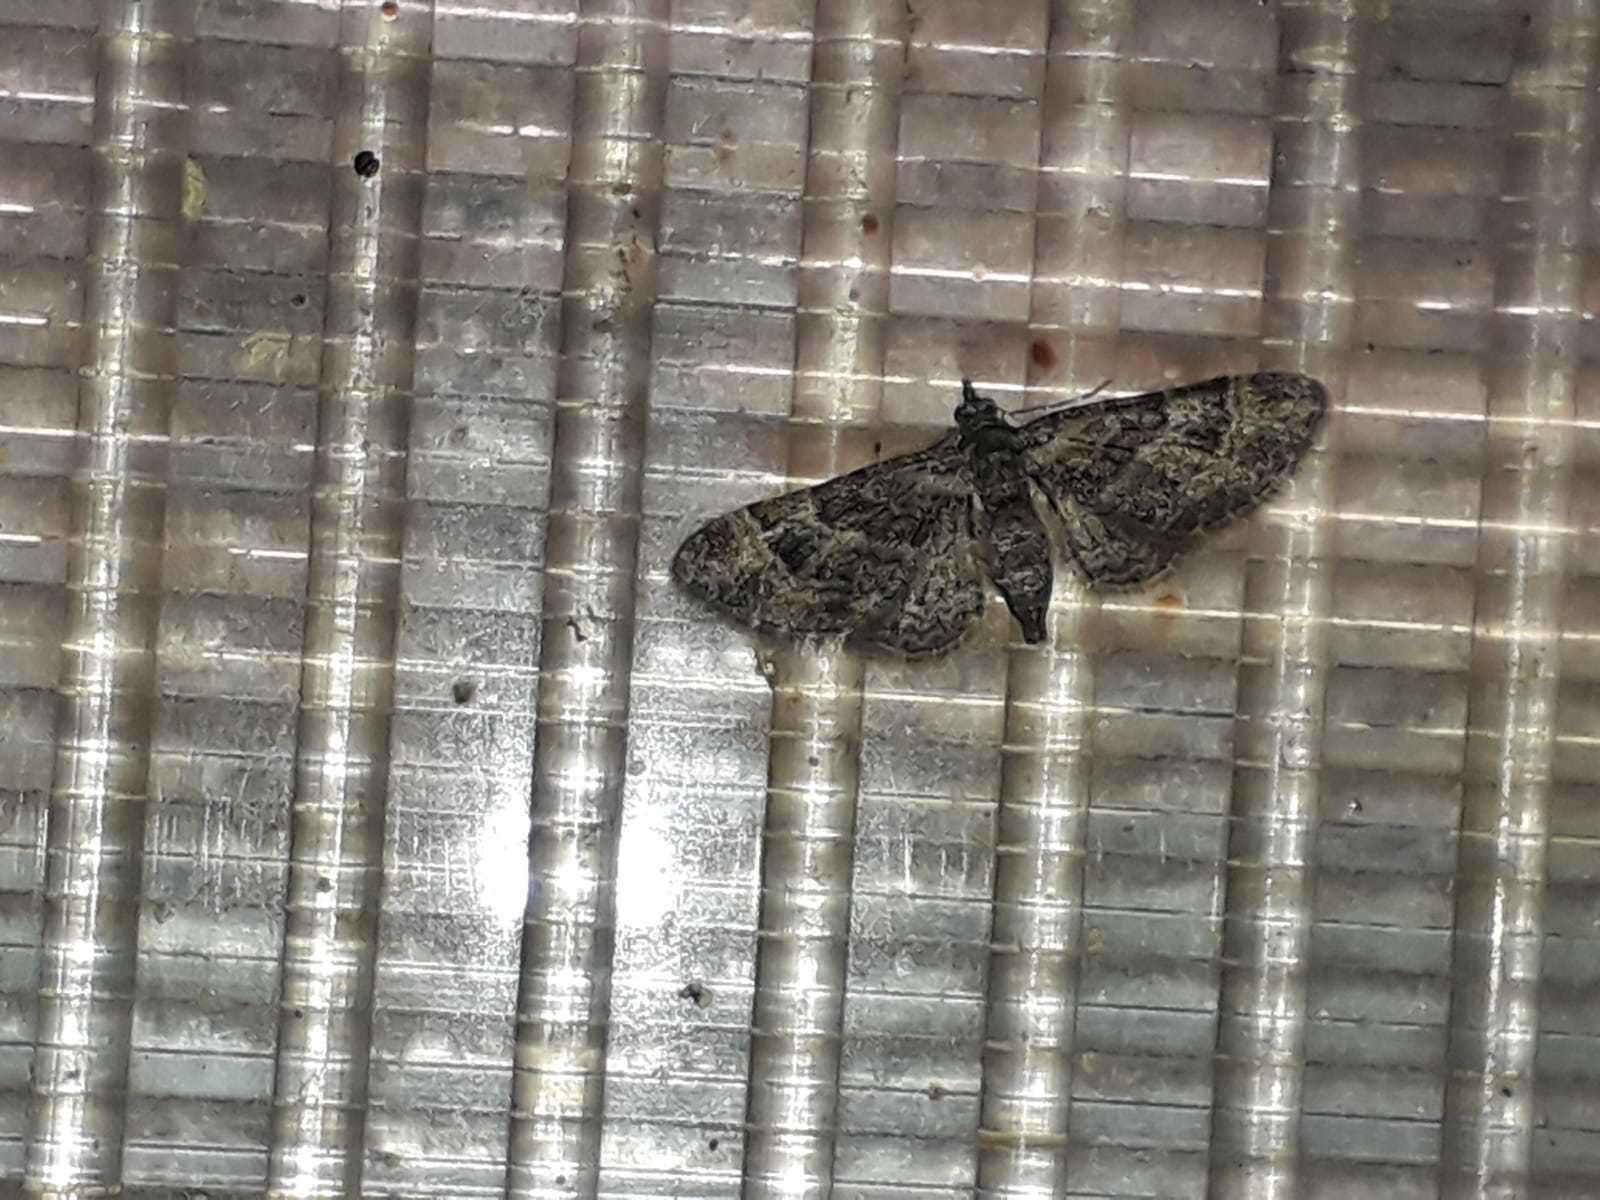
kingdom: Animalia
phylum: Arthropoda
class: Insecta
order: Lepidoptera
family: Geometridae
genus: Gymnoscelis
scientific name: Gymnoscelis rufifasciata
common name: Double-striped pug
